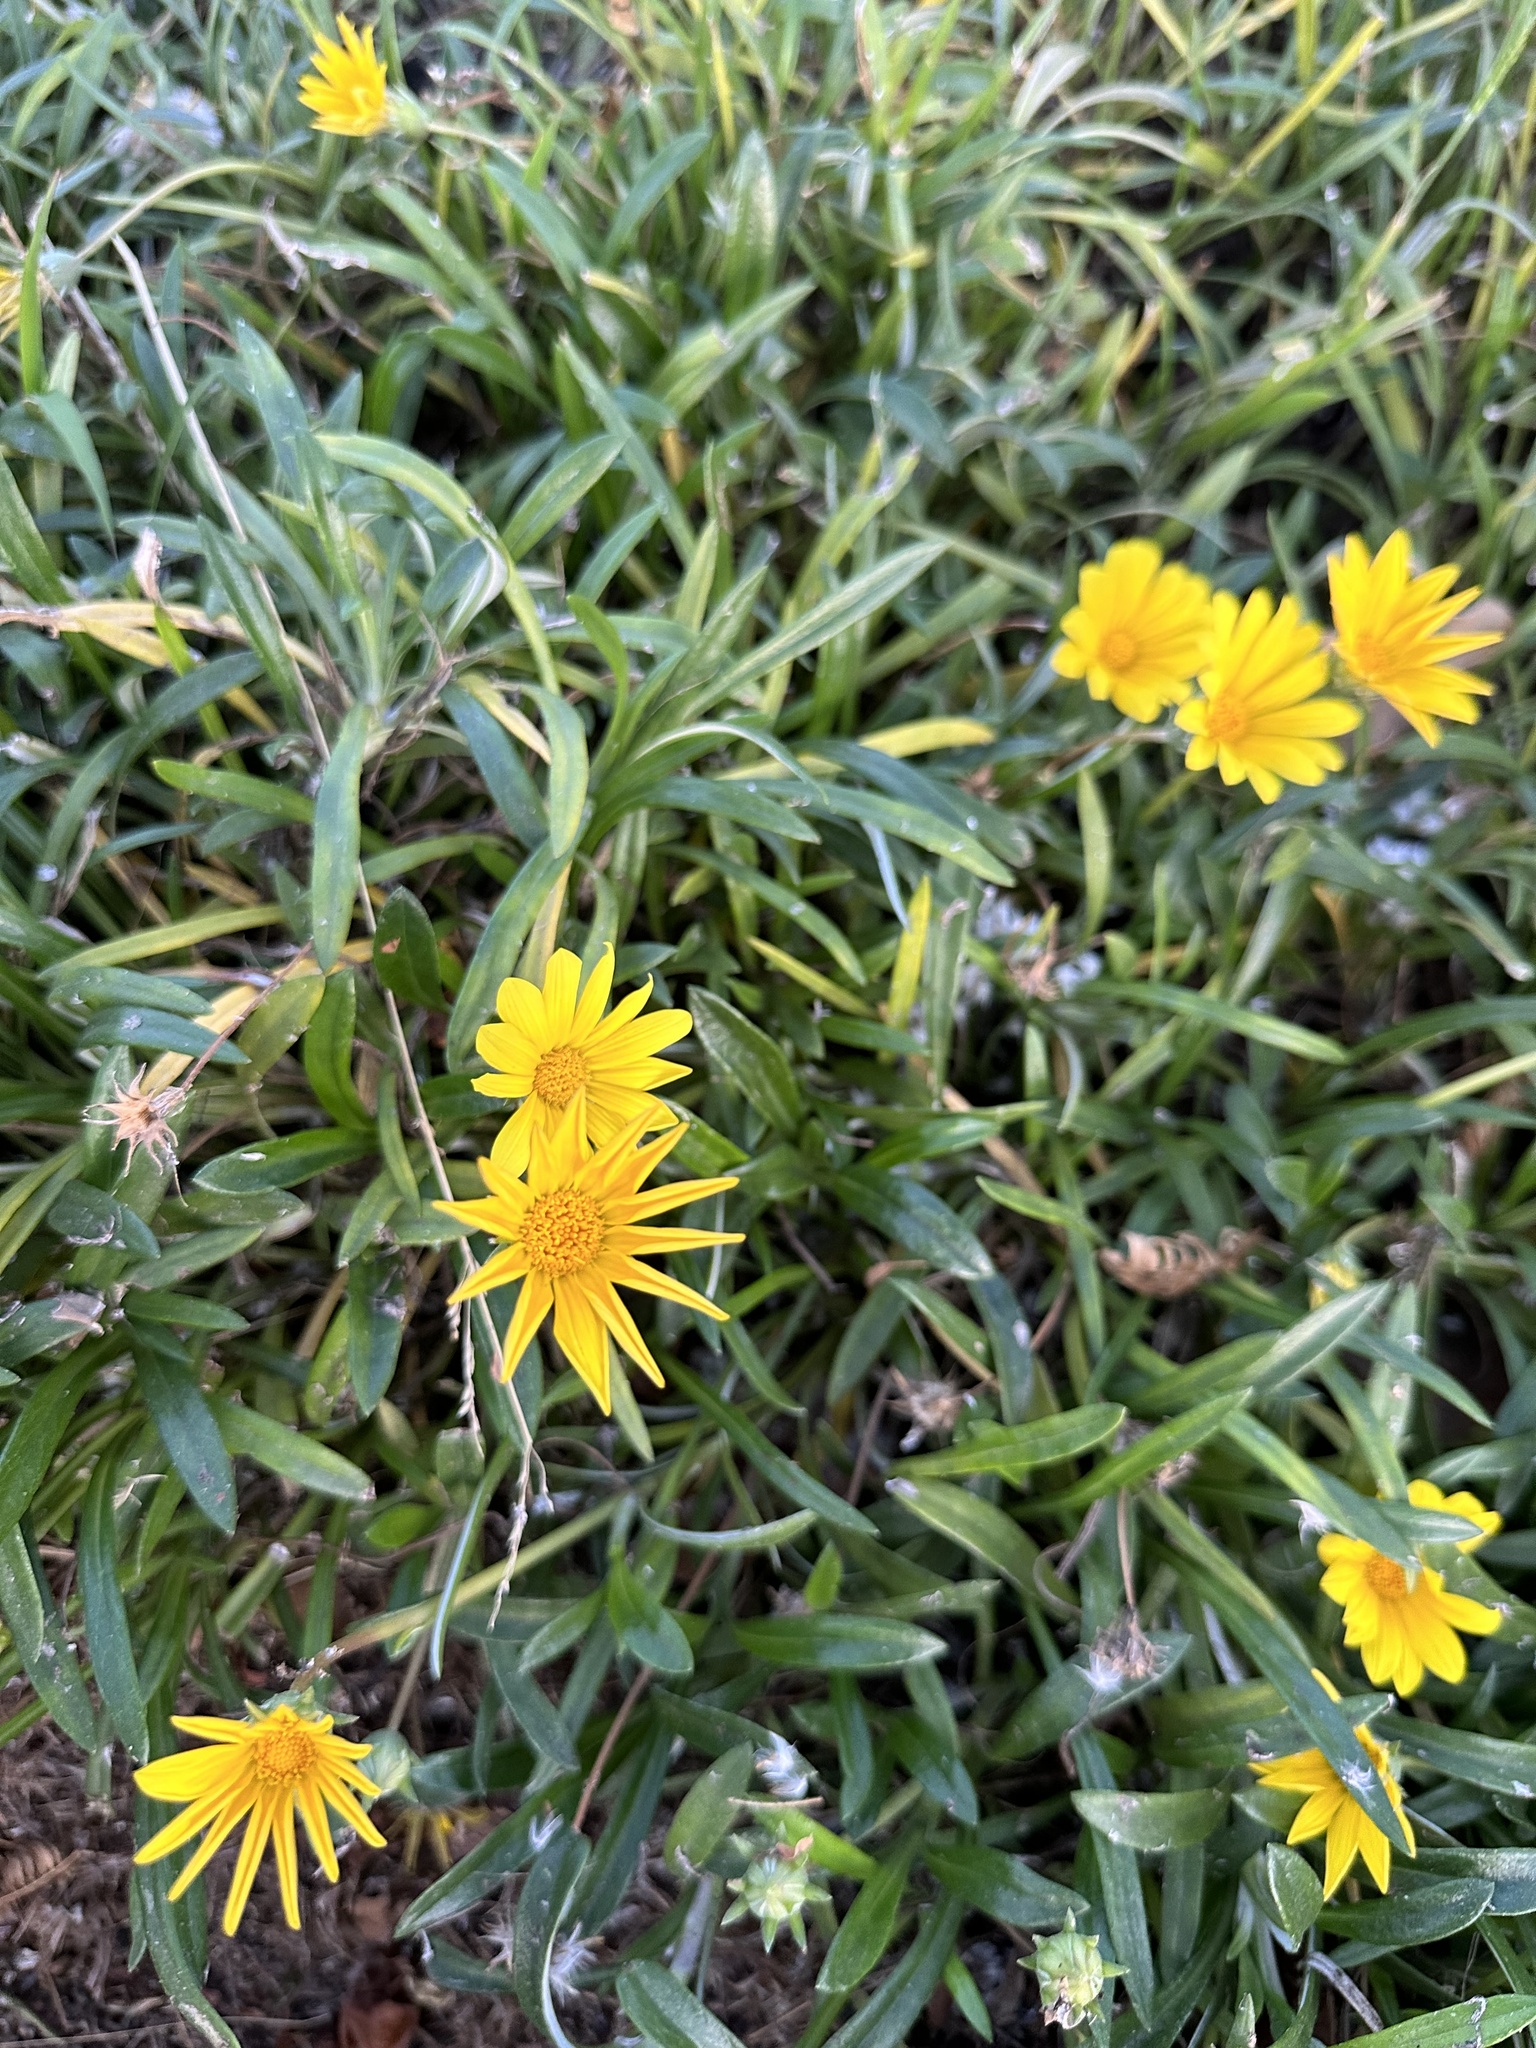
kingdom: Plantae
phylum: Tracheophyta
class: Magnoliopsida
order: Asterales
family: Asteraceae
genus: Gazania
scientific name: Gazania linearis
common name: Treasureflower
